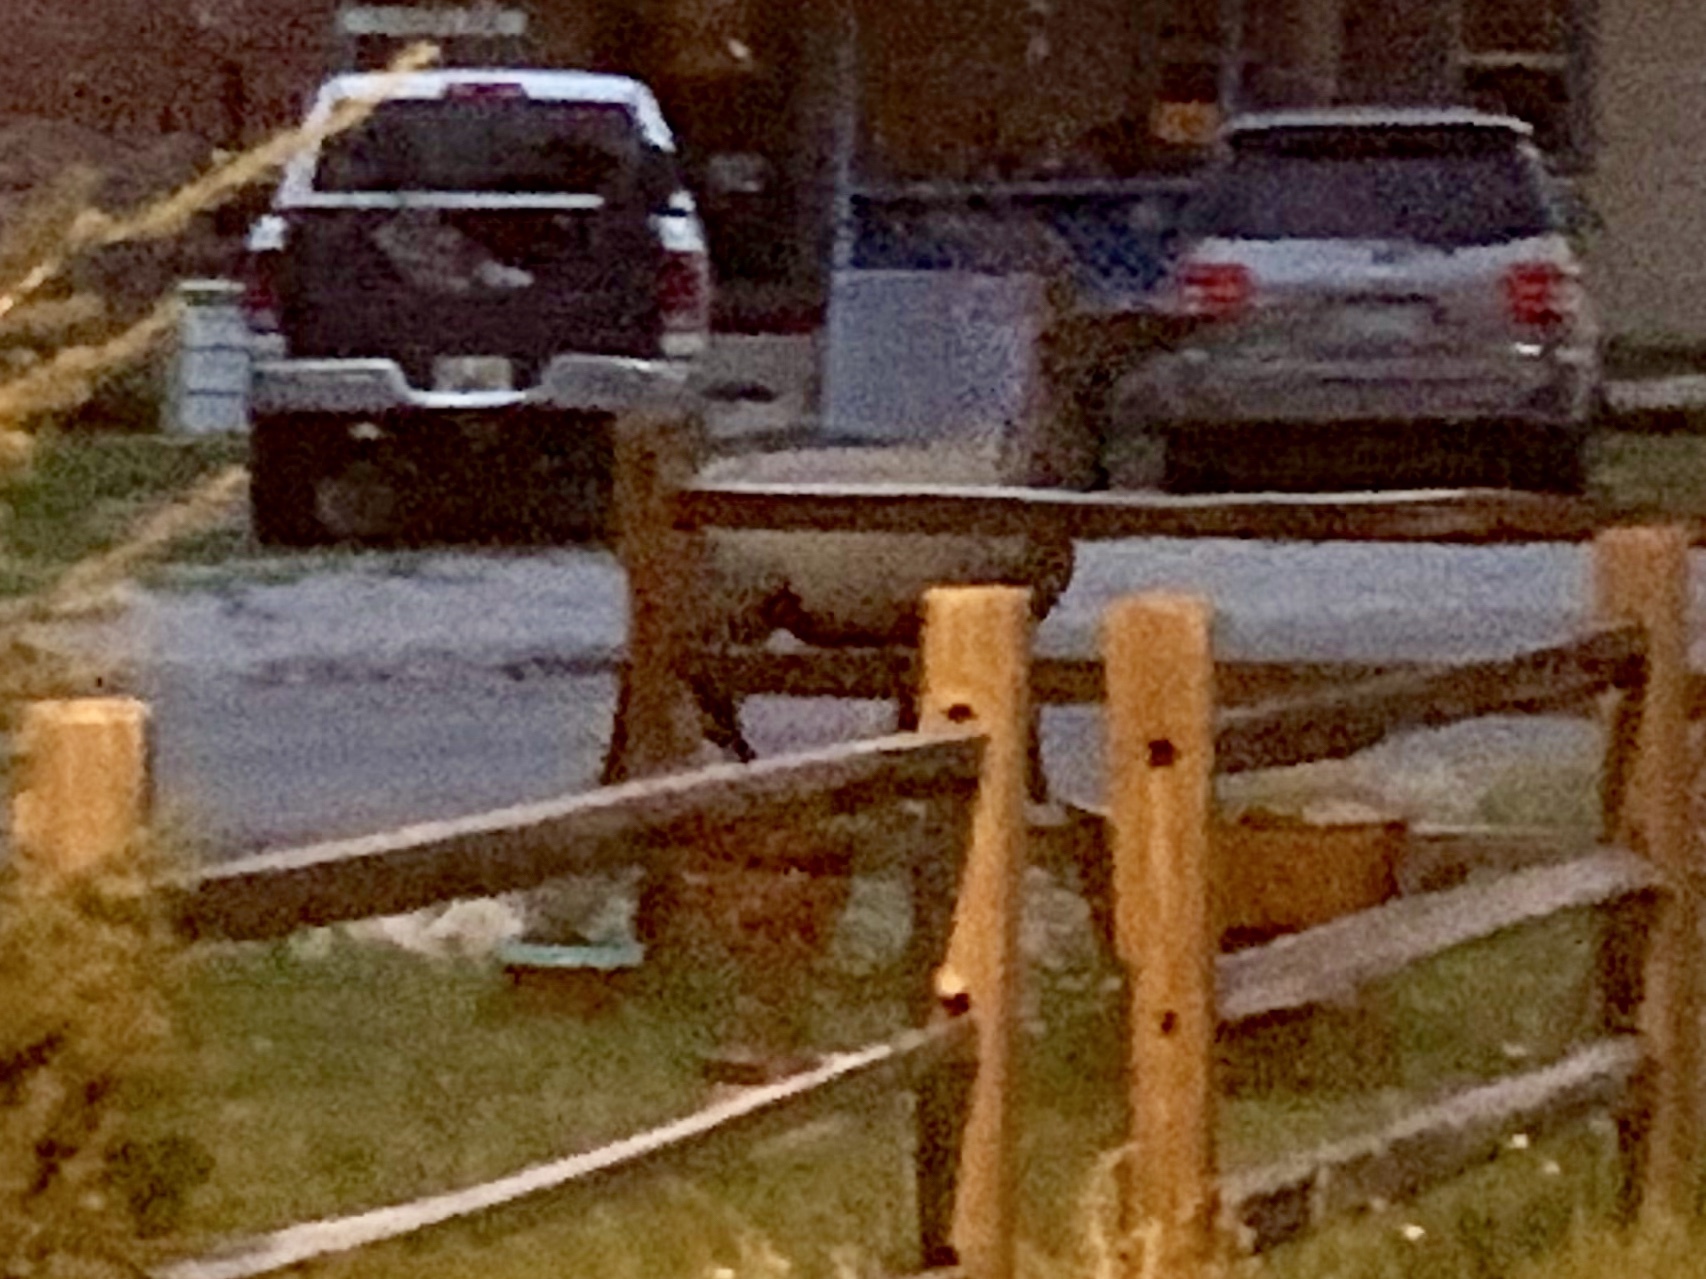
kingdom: Animalia
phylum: Chordata
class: Mammalia
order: Artiodactyla
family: Cervidae
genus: Cervus
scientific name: Cervus elaphus
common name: Red deer
